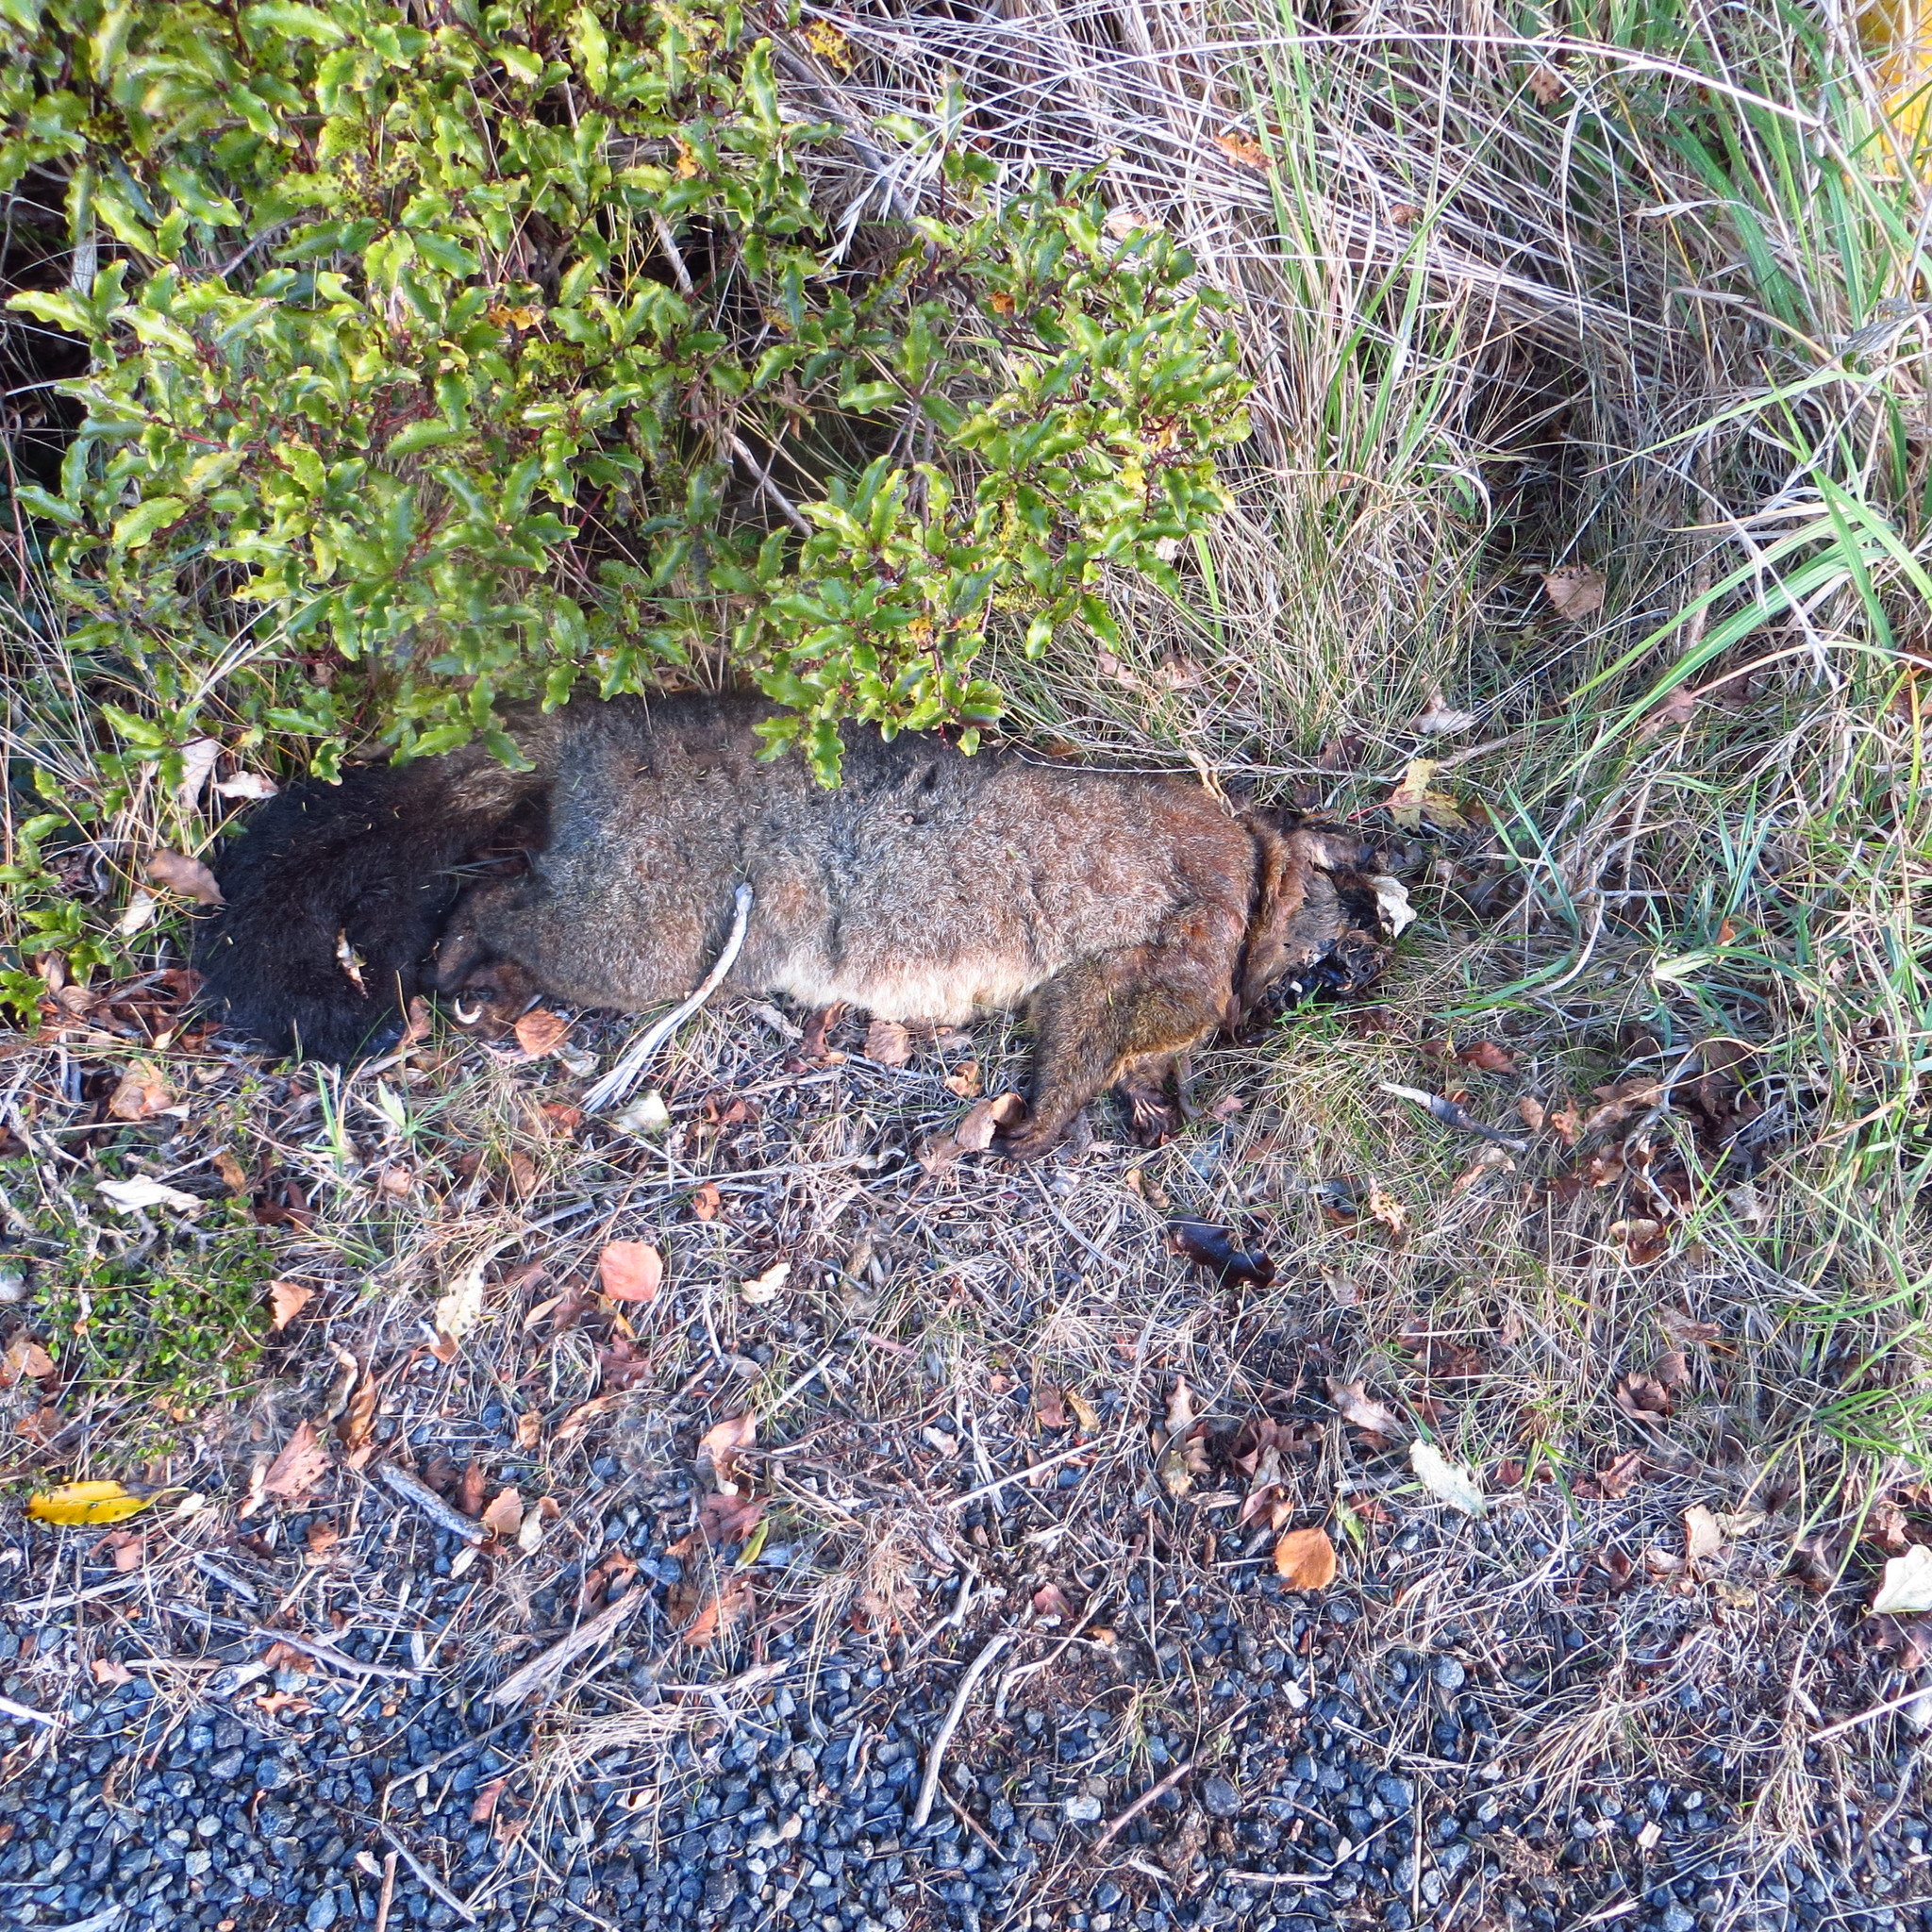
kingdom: Animalia
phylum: Chordata
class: Mammalia
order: Diprotodontia
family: Phalangeridae
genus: Trichosurus
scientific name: Trichosurus vulpecula
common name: Common brushtail
